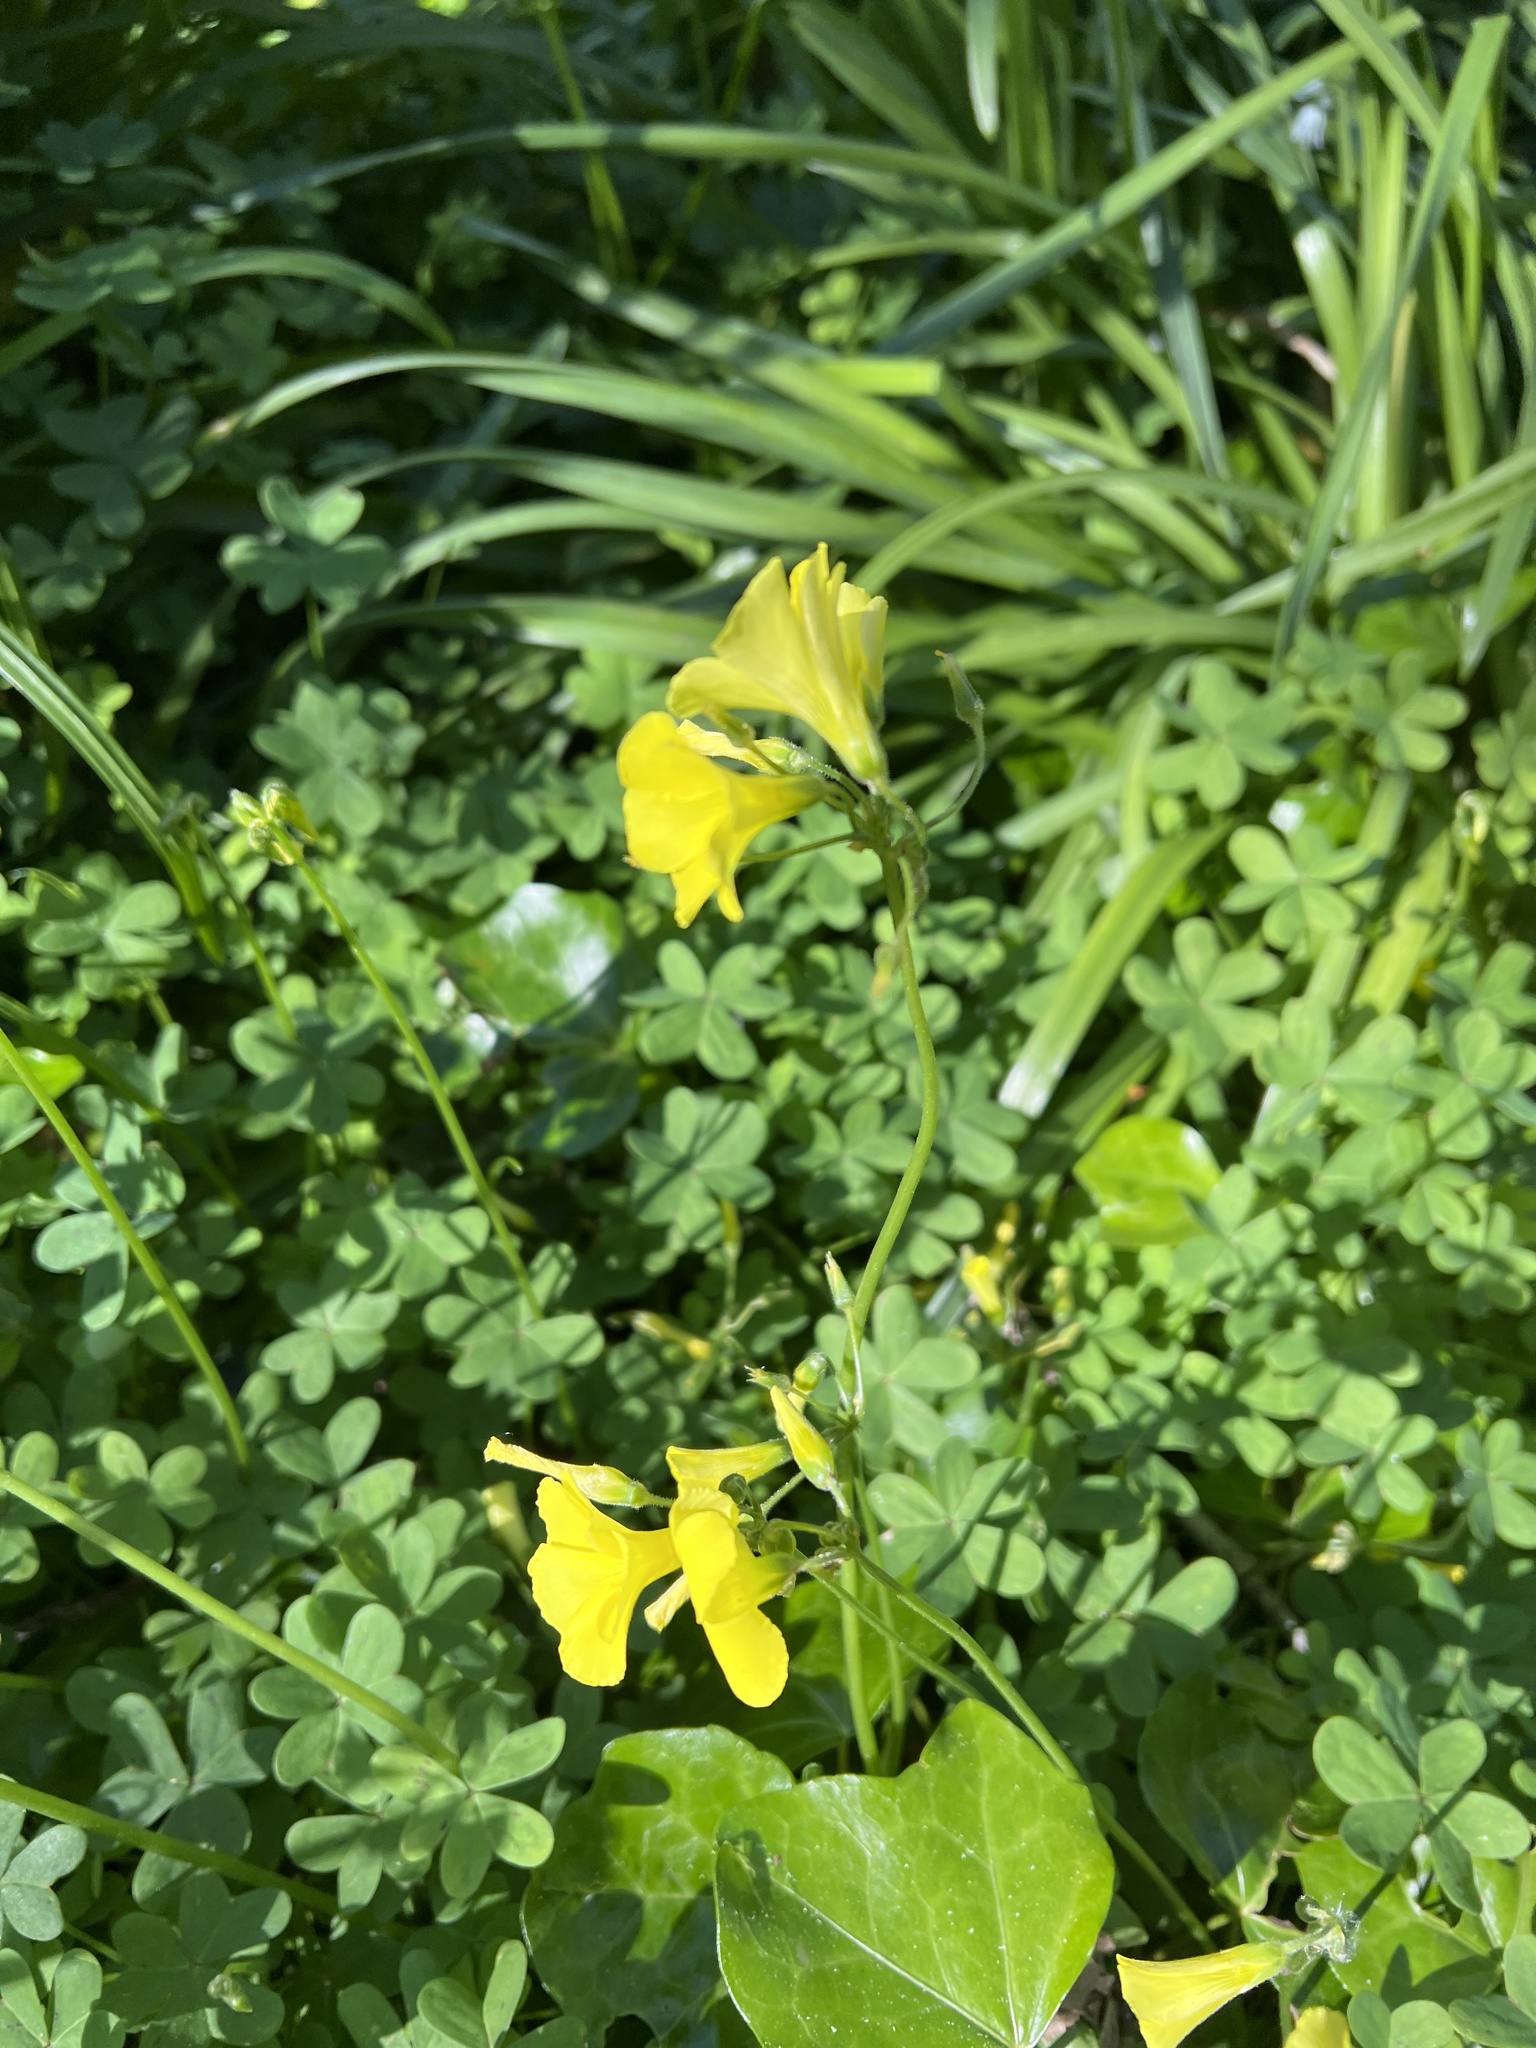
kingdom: Plantae
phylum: Tracheophyta
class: Magnoliopsida
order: Oxalidales
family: Oxalidaceae
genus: Oxalis
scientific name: Oxalis pes-caprae
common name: Bermuda-buttercup
